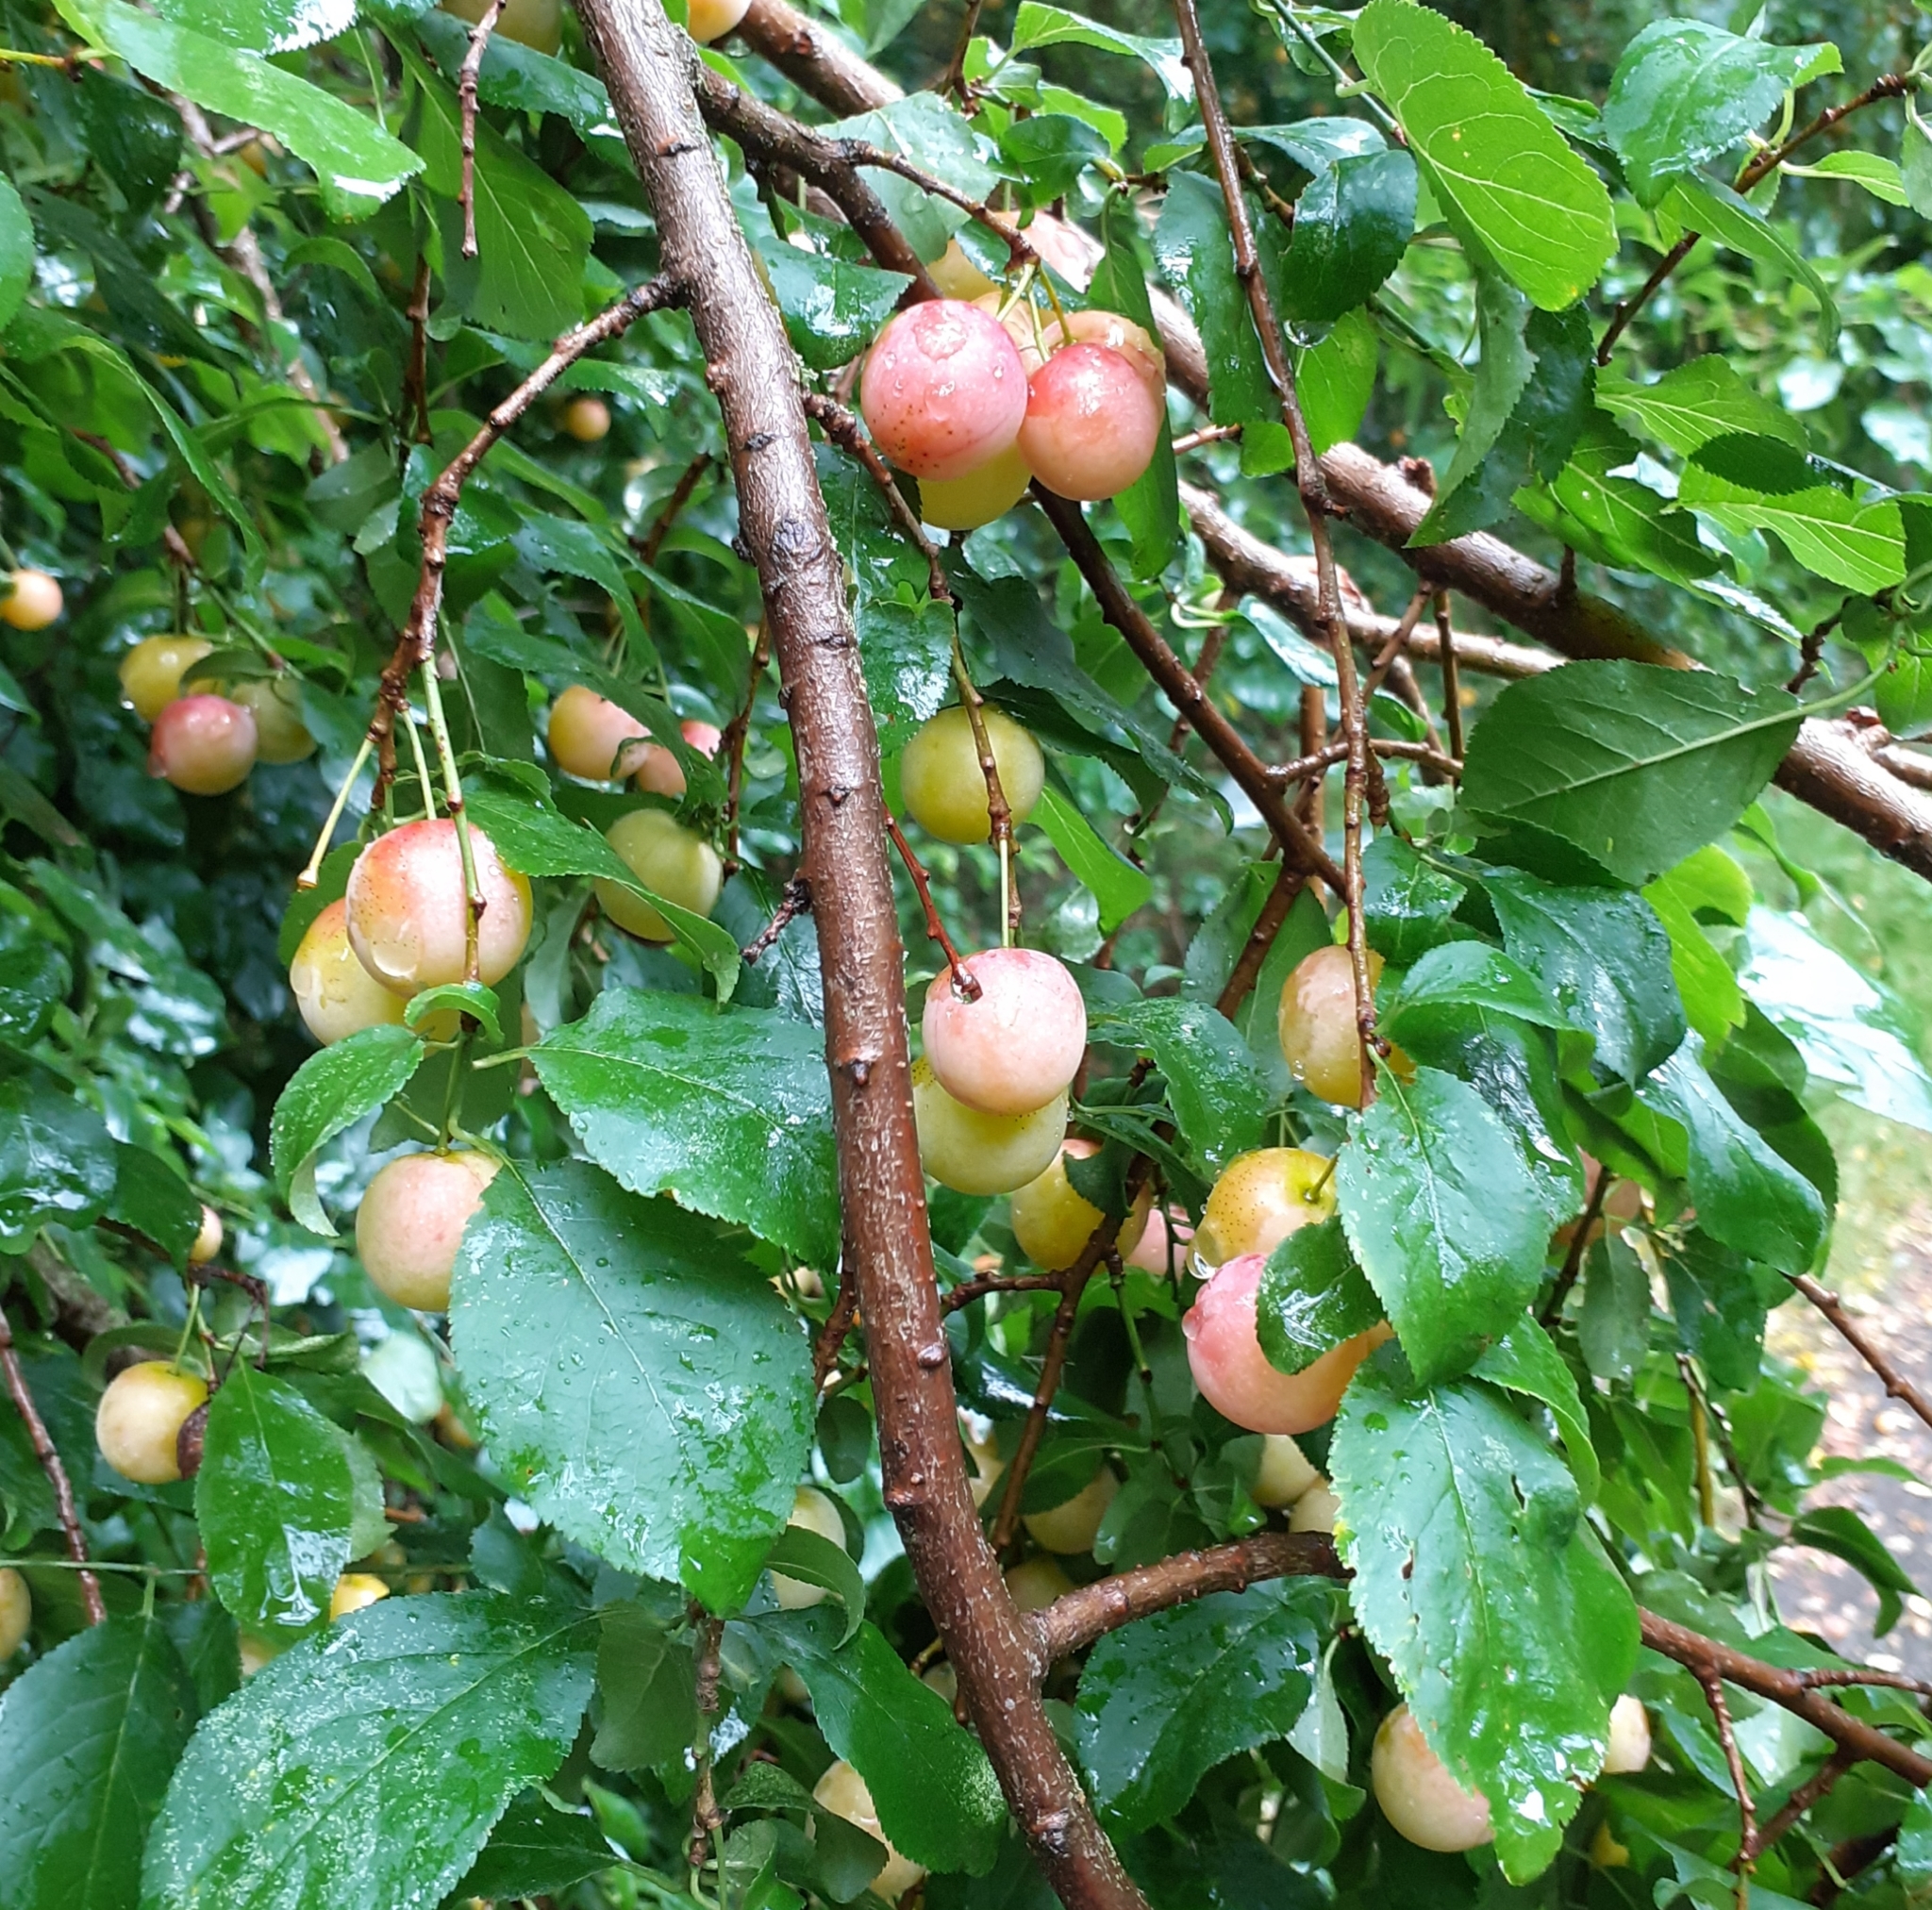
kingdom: Plantae
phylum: Tracheophyta
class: Magnoliopsida
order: Rosales
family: Rosaceae
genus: Prunus
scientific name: Prunus cerasifera
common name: Cherry plum
